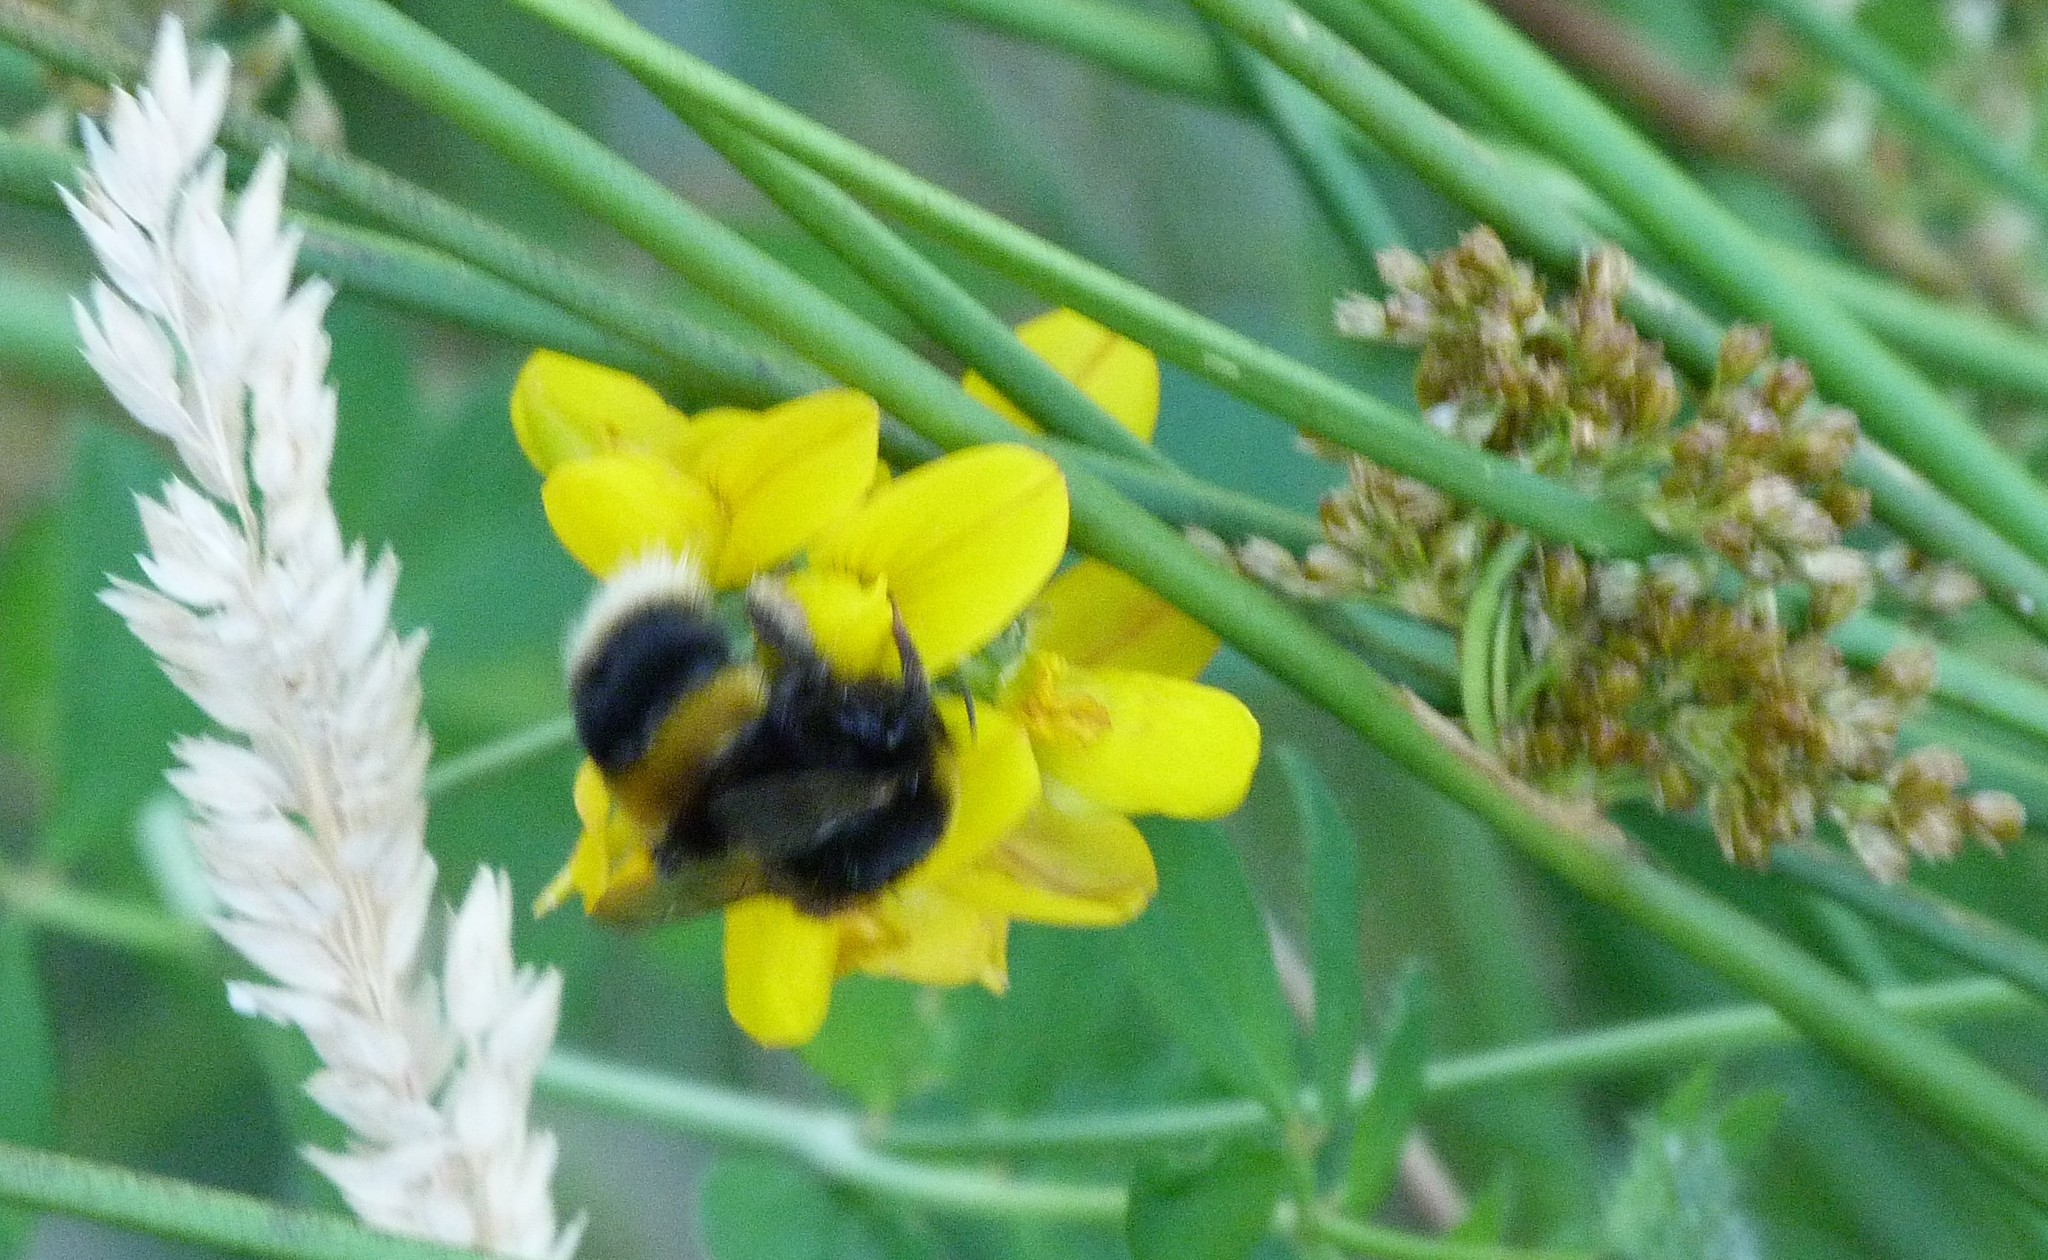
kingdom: Animalia
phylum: Arthropoda
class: Insecta
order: Hymenoptera
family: Apidae
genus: Bombus
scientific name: Bombus terrestris
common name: Buff-tailed bumblebee
